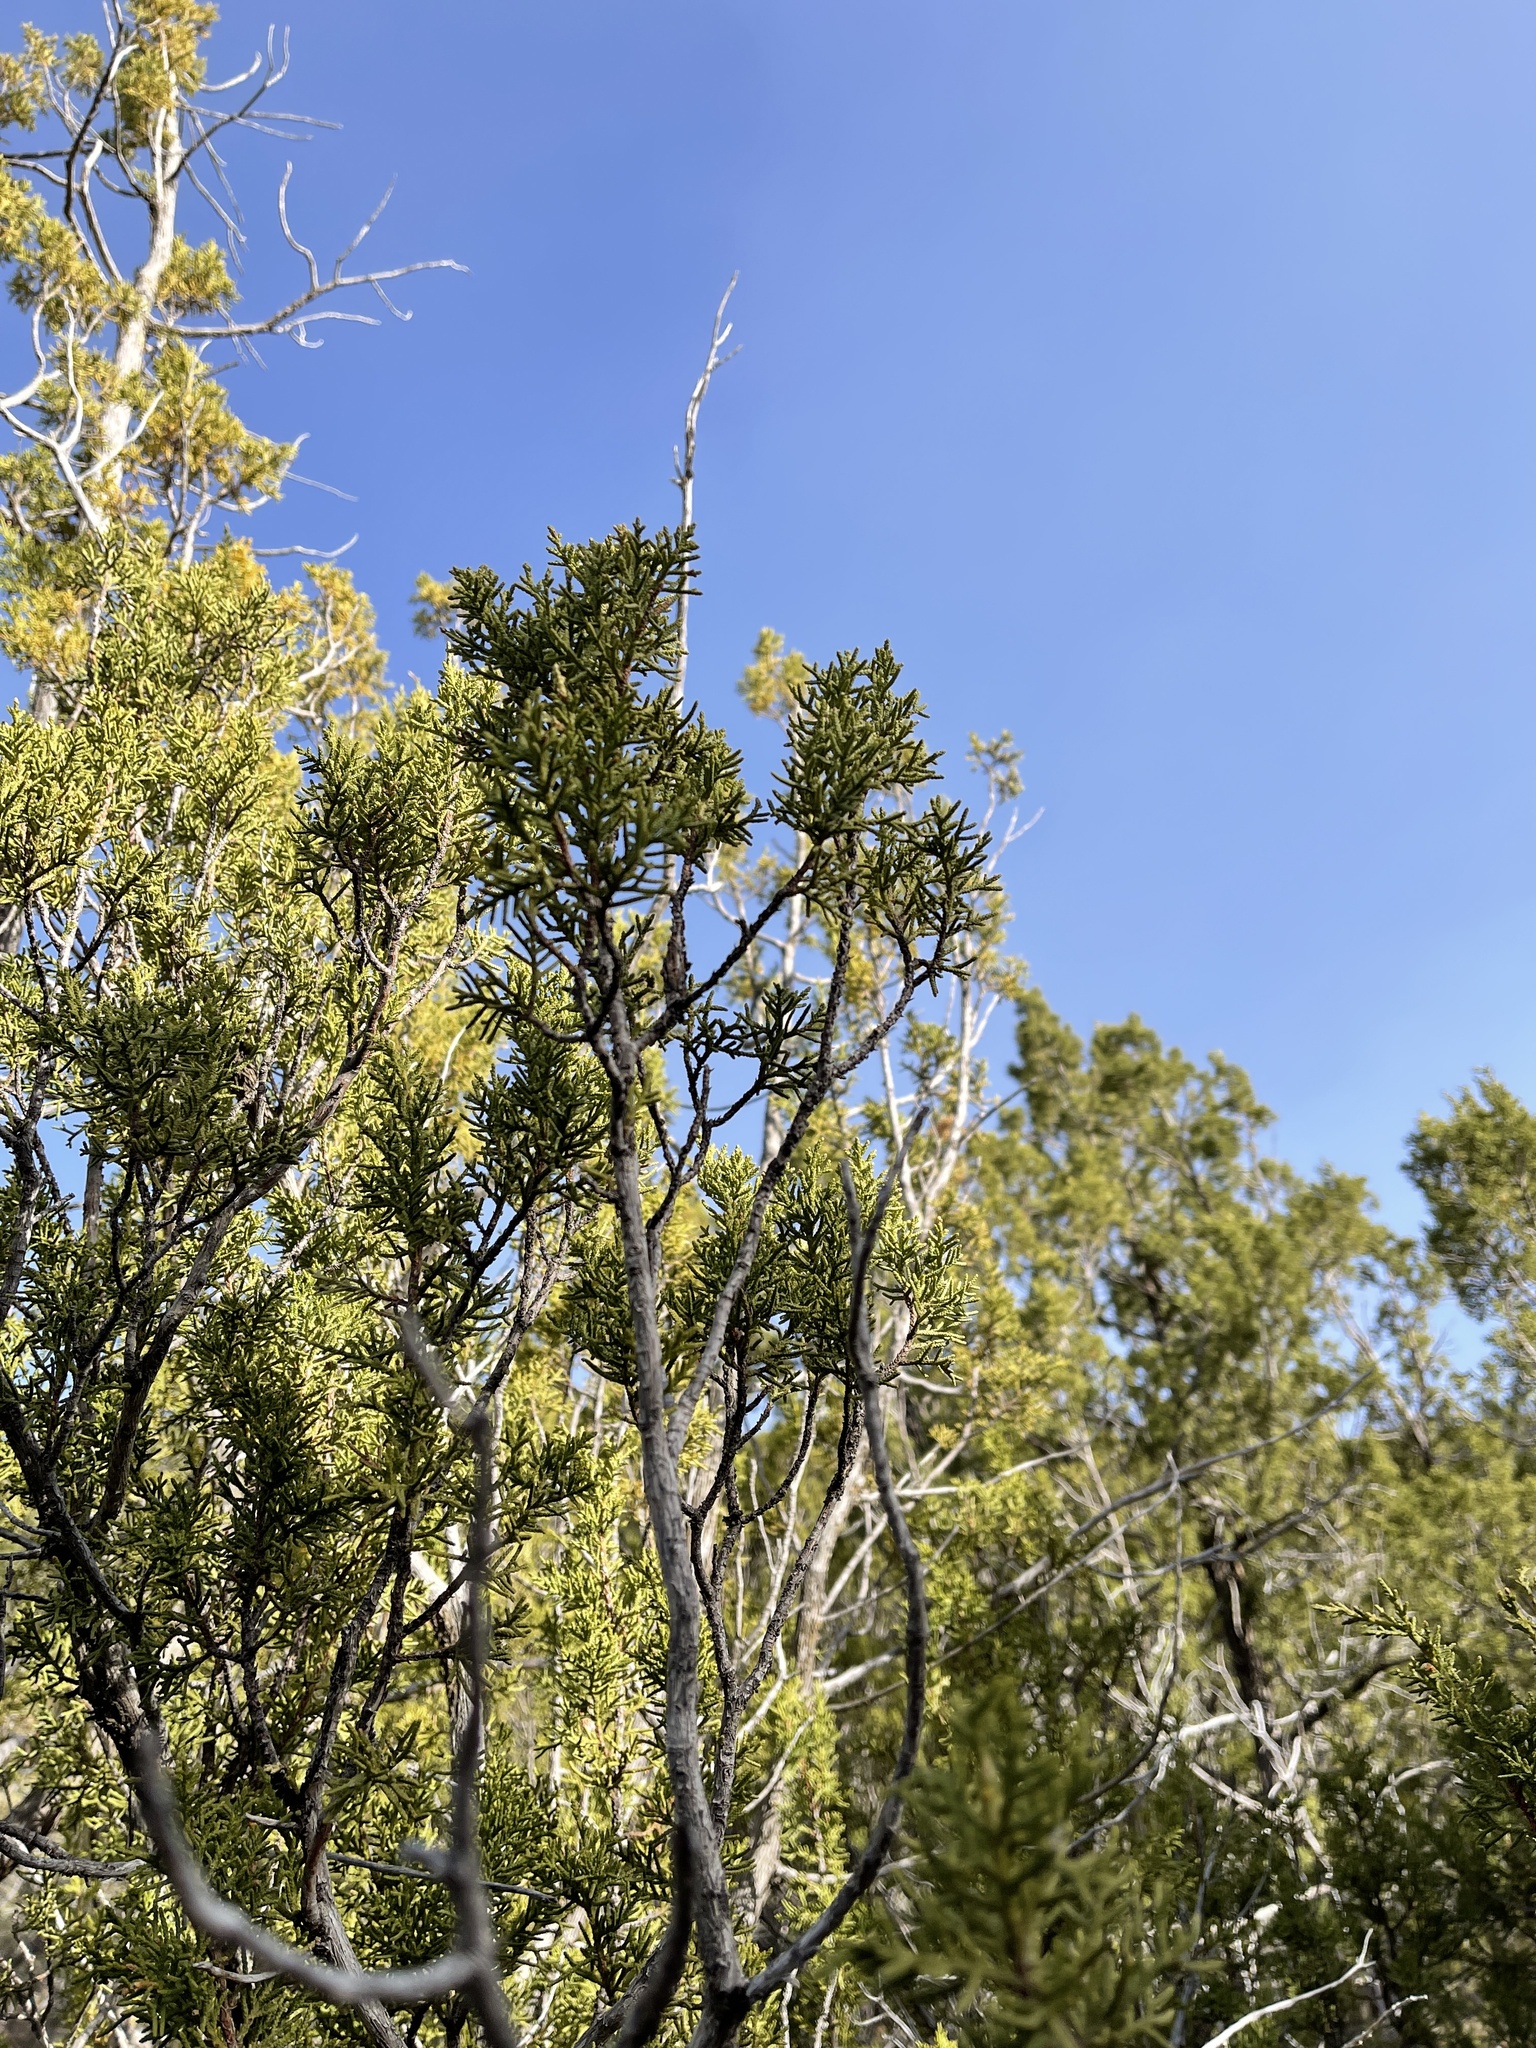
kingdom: Plantae
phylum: Tracheophyta
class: Pinopsida
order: Pinales
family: Cupressaceae
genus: Juniperus
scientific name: Juniperus monosperma
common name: One-seed juniper
